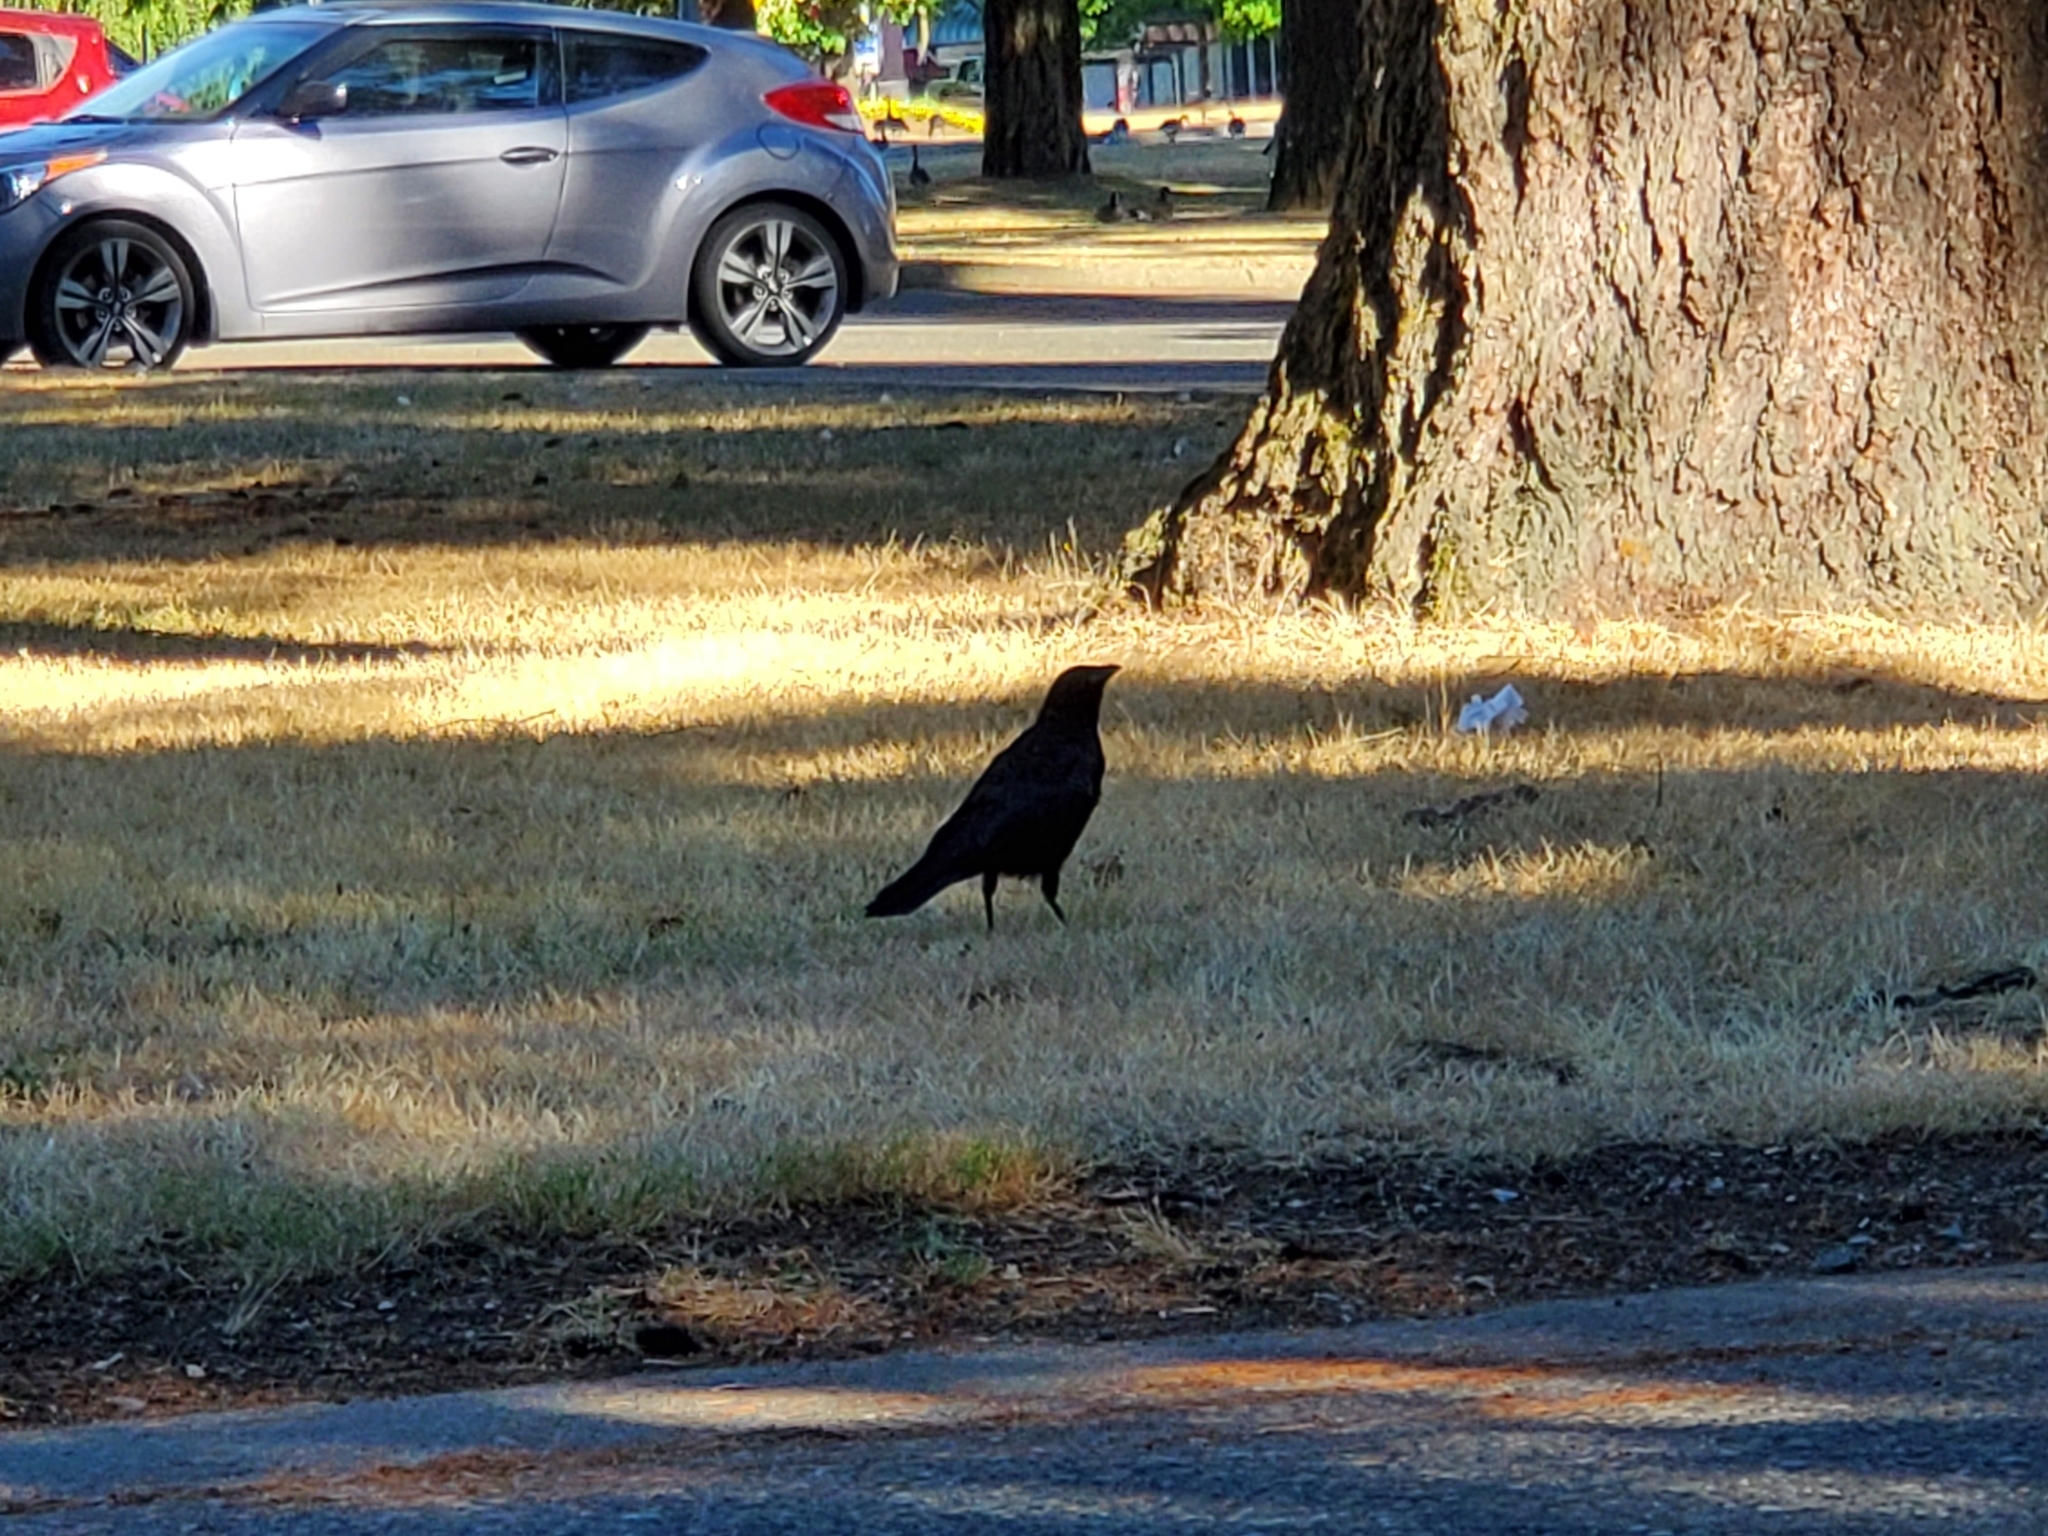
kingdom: Animalia
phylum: Chordata
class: Aves
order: Passeriformes
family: Corvidae
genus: Corvus
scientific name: Corvus brachyrhynchos
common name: American crow
